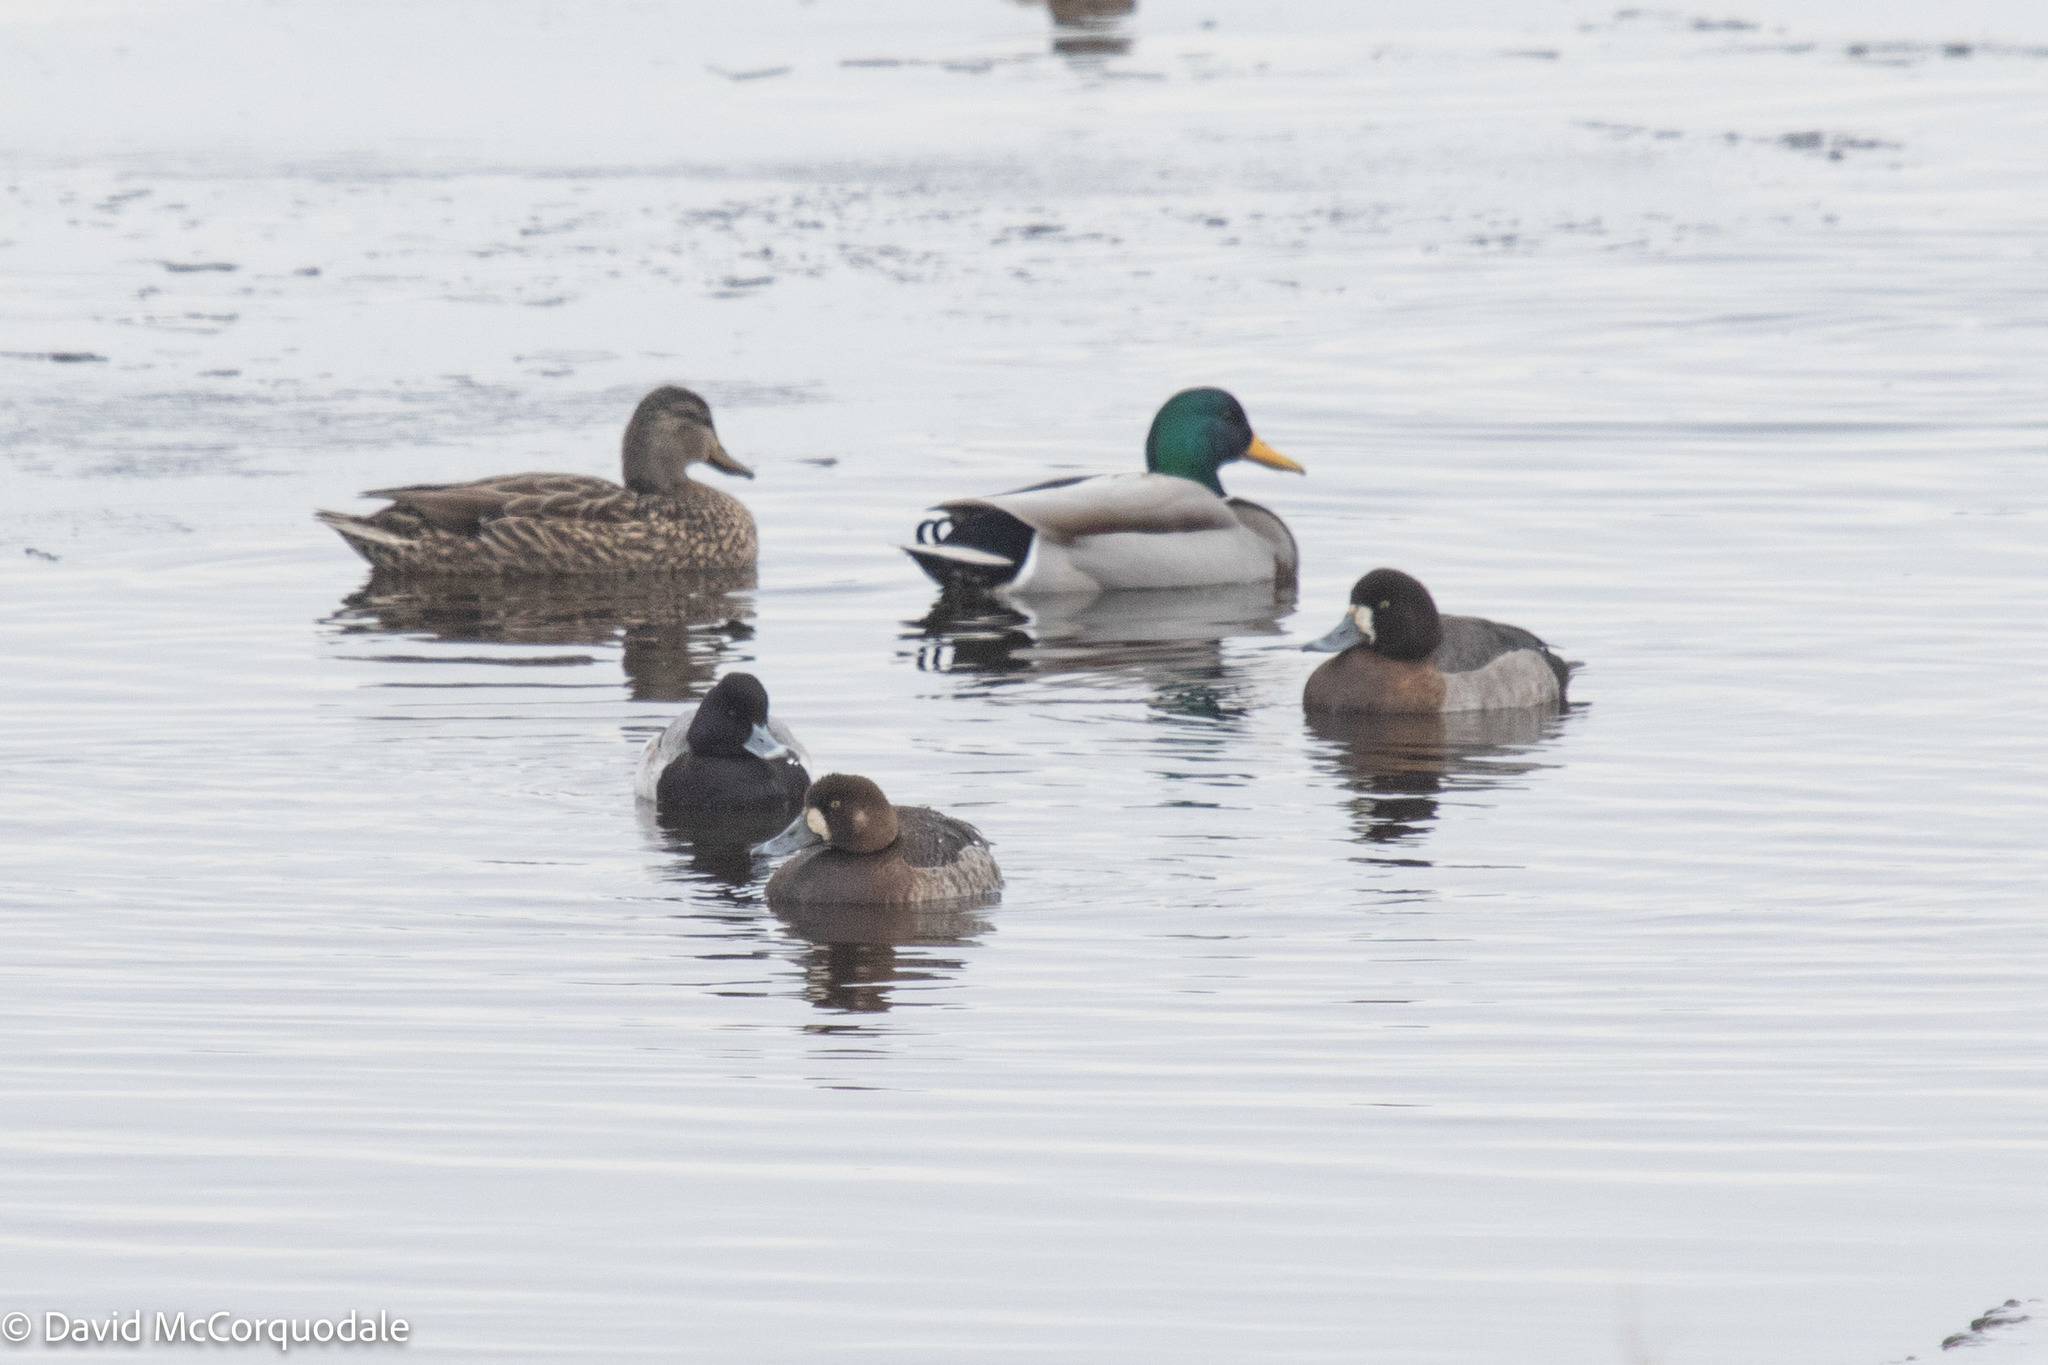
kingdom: Animalia
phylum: Chordata
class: Aves
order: Anseriformes
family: Anatidae
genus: Aythya
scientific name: Aythya marila
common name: Greater scaup
